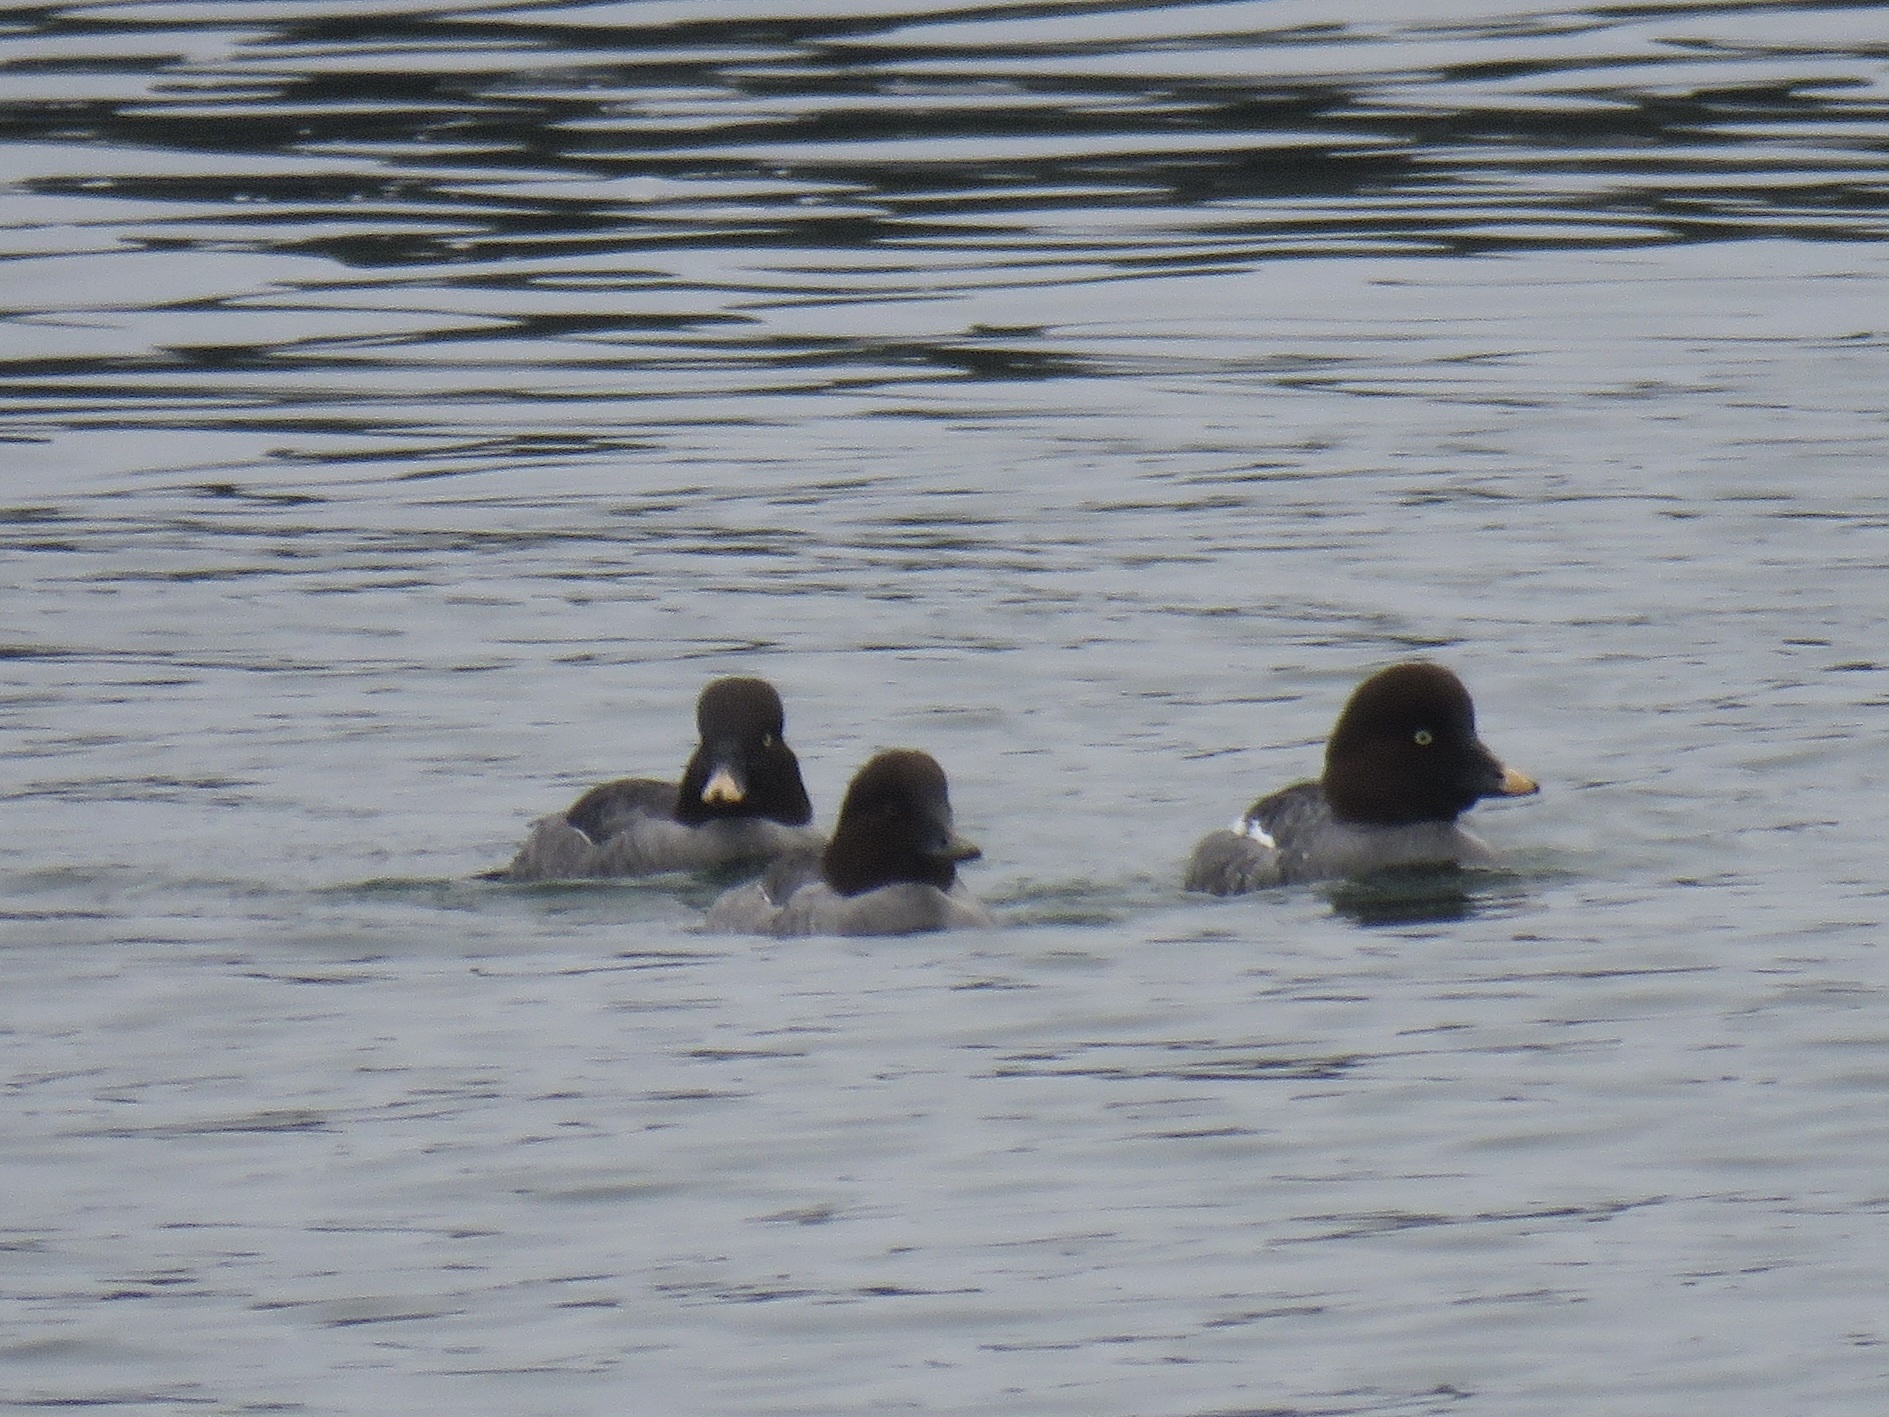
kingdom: Animalia
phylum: Chordata
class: Aves
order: Anseriformes
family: Anatidae
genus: Bucephala
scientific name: Bucephala clangula
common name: Common goldeneye
